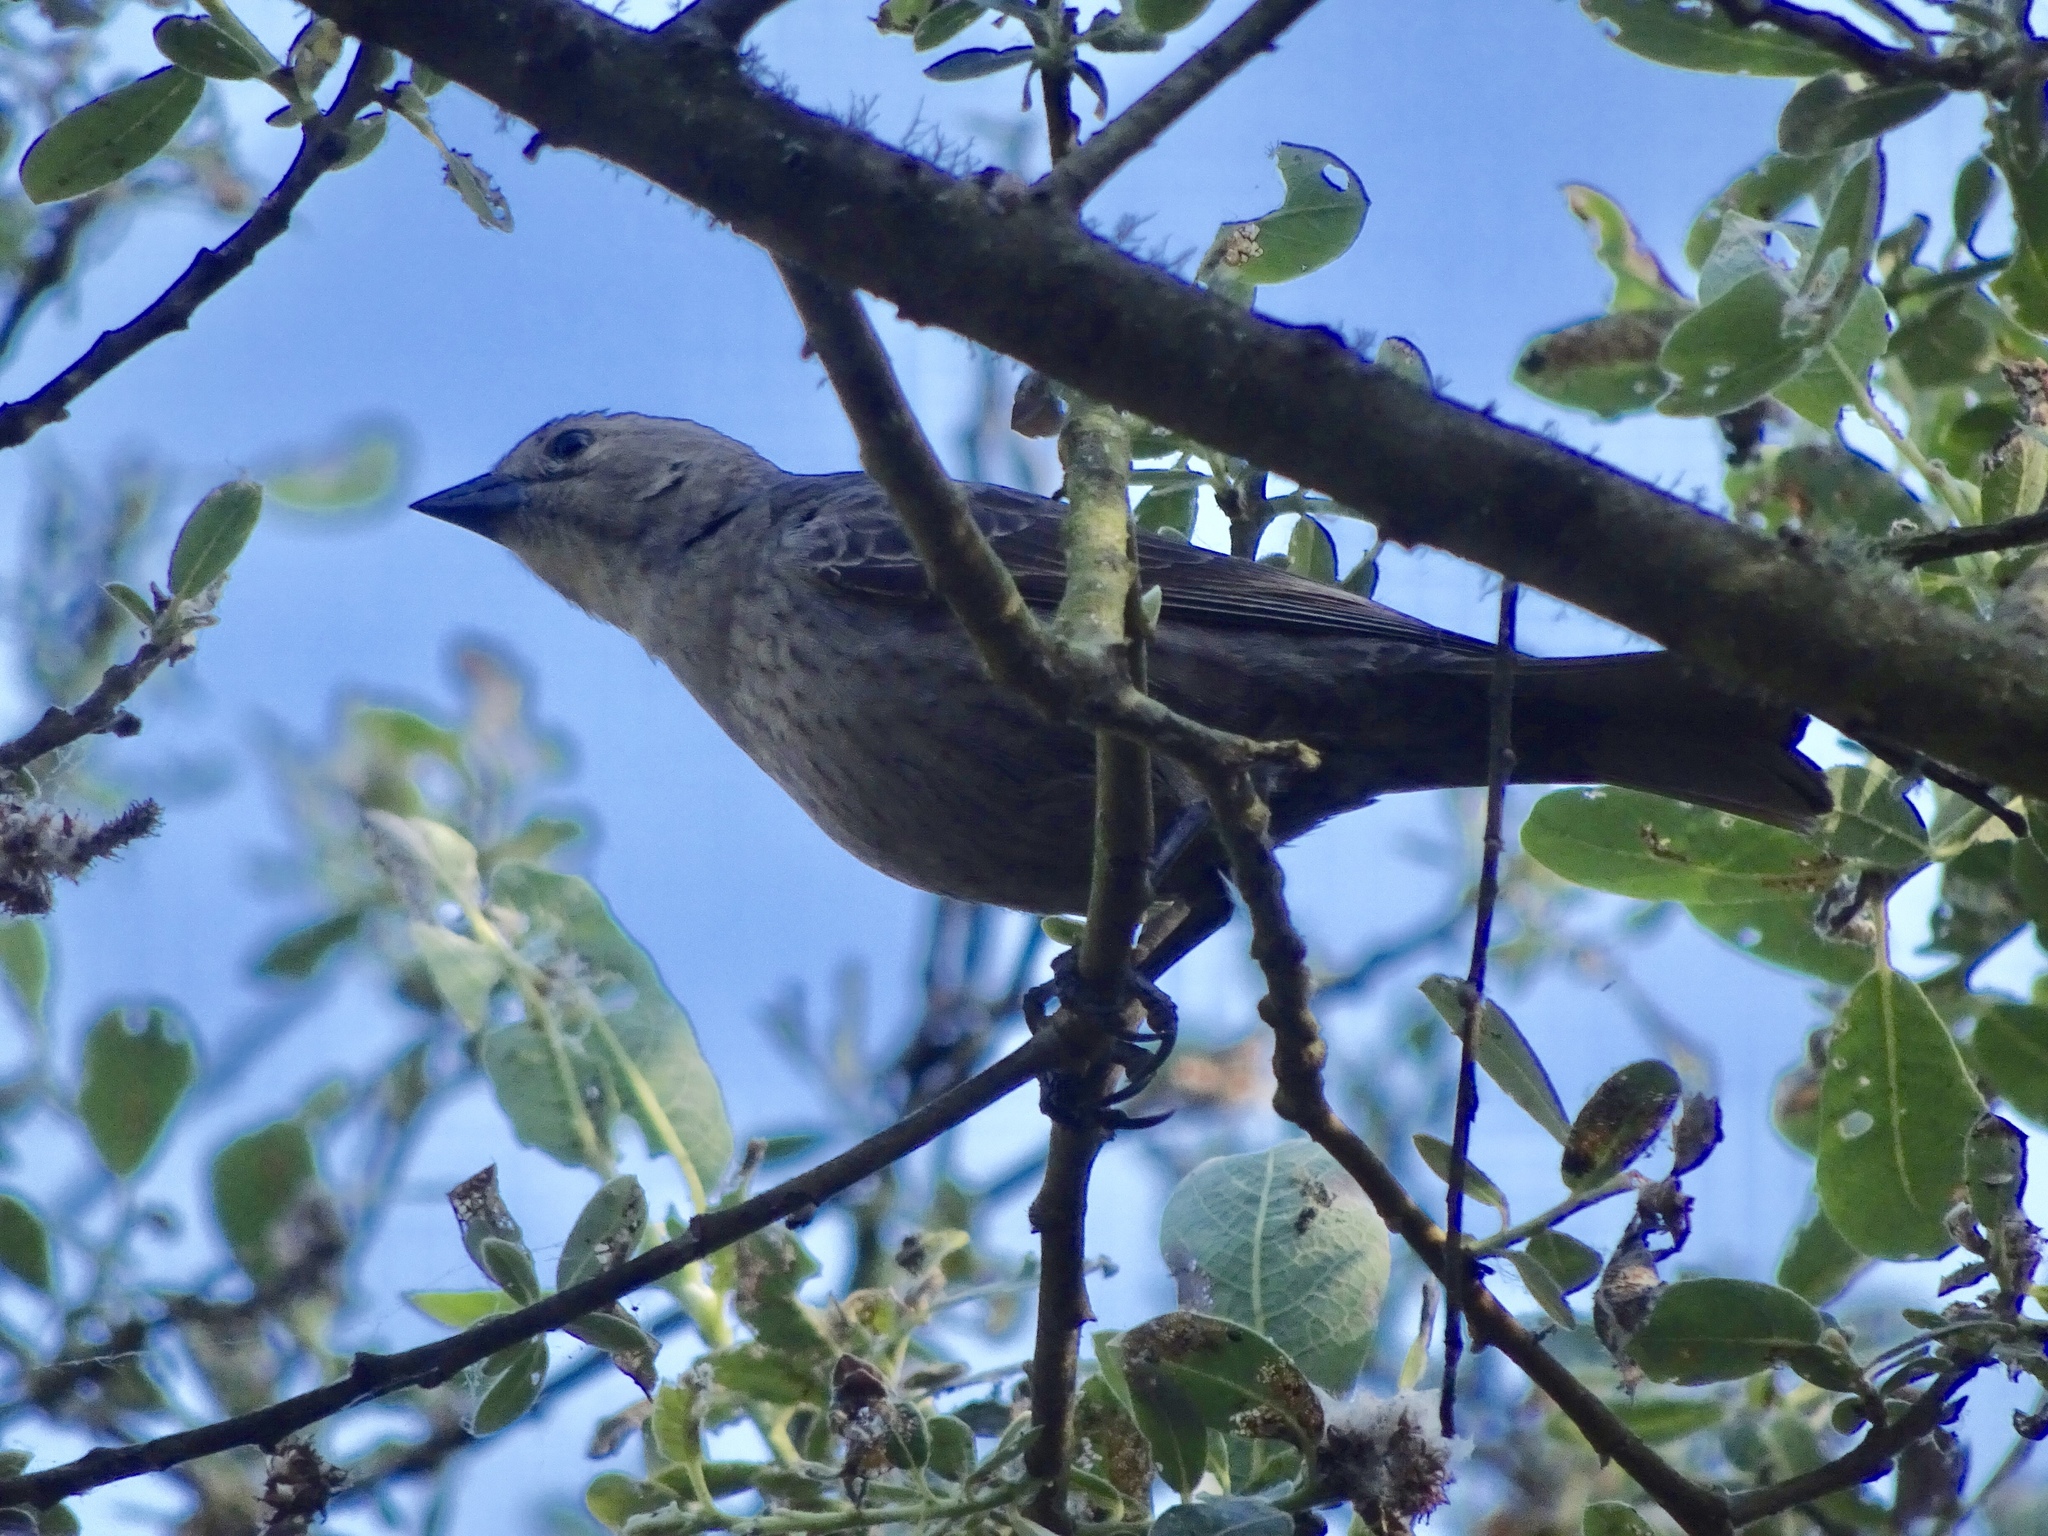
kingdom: Animalia
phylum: Chordata
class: Aves
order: Passeriformes
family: Icteridae
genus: Molothrus
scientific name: Molothrus ater
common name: Brown-headed cowbird
